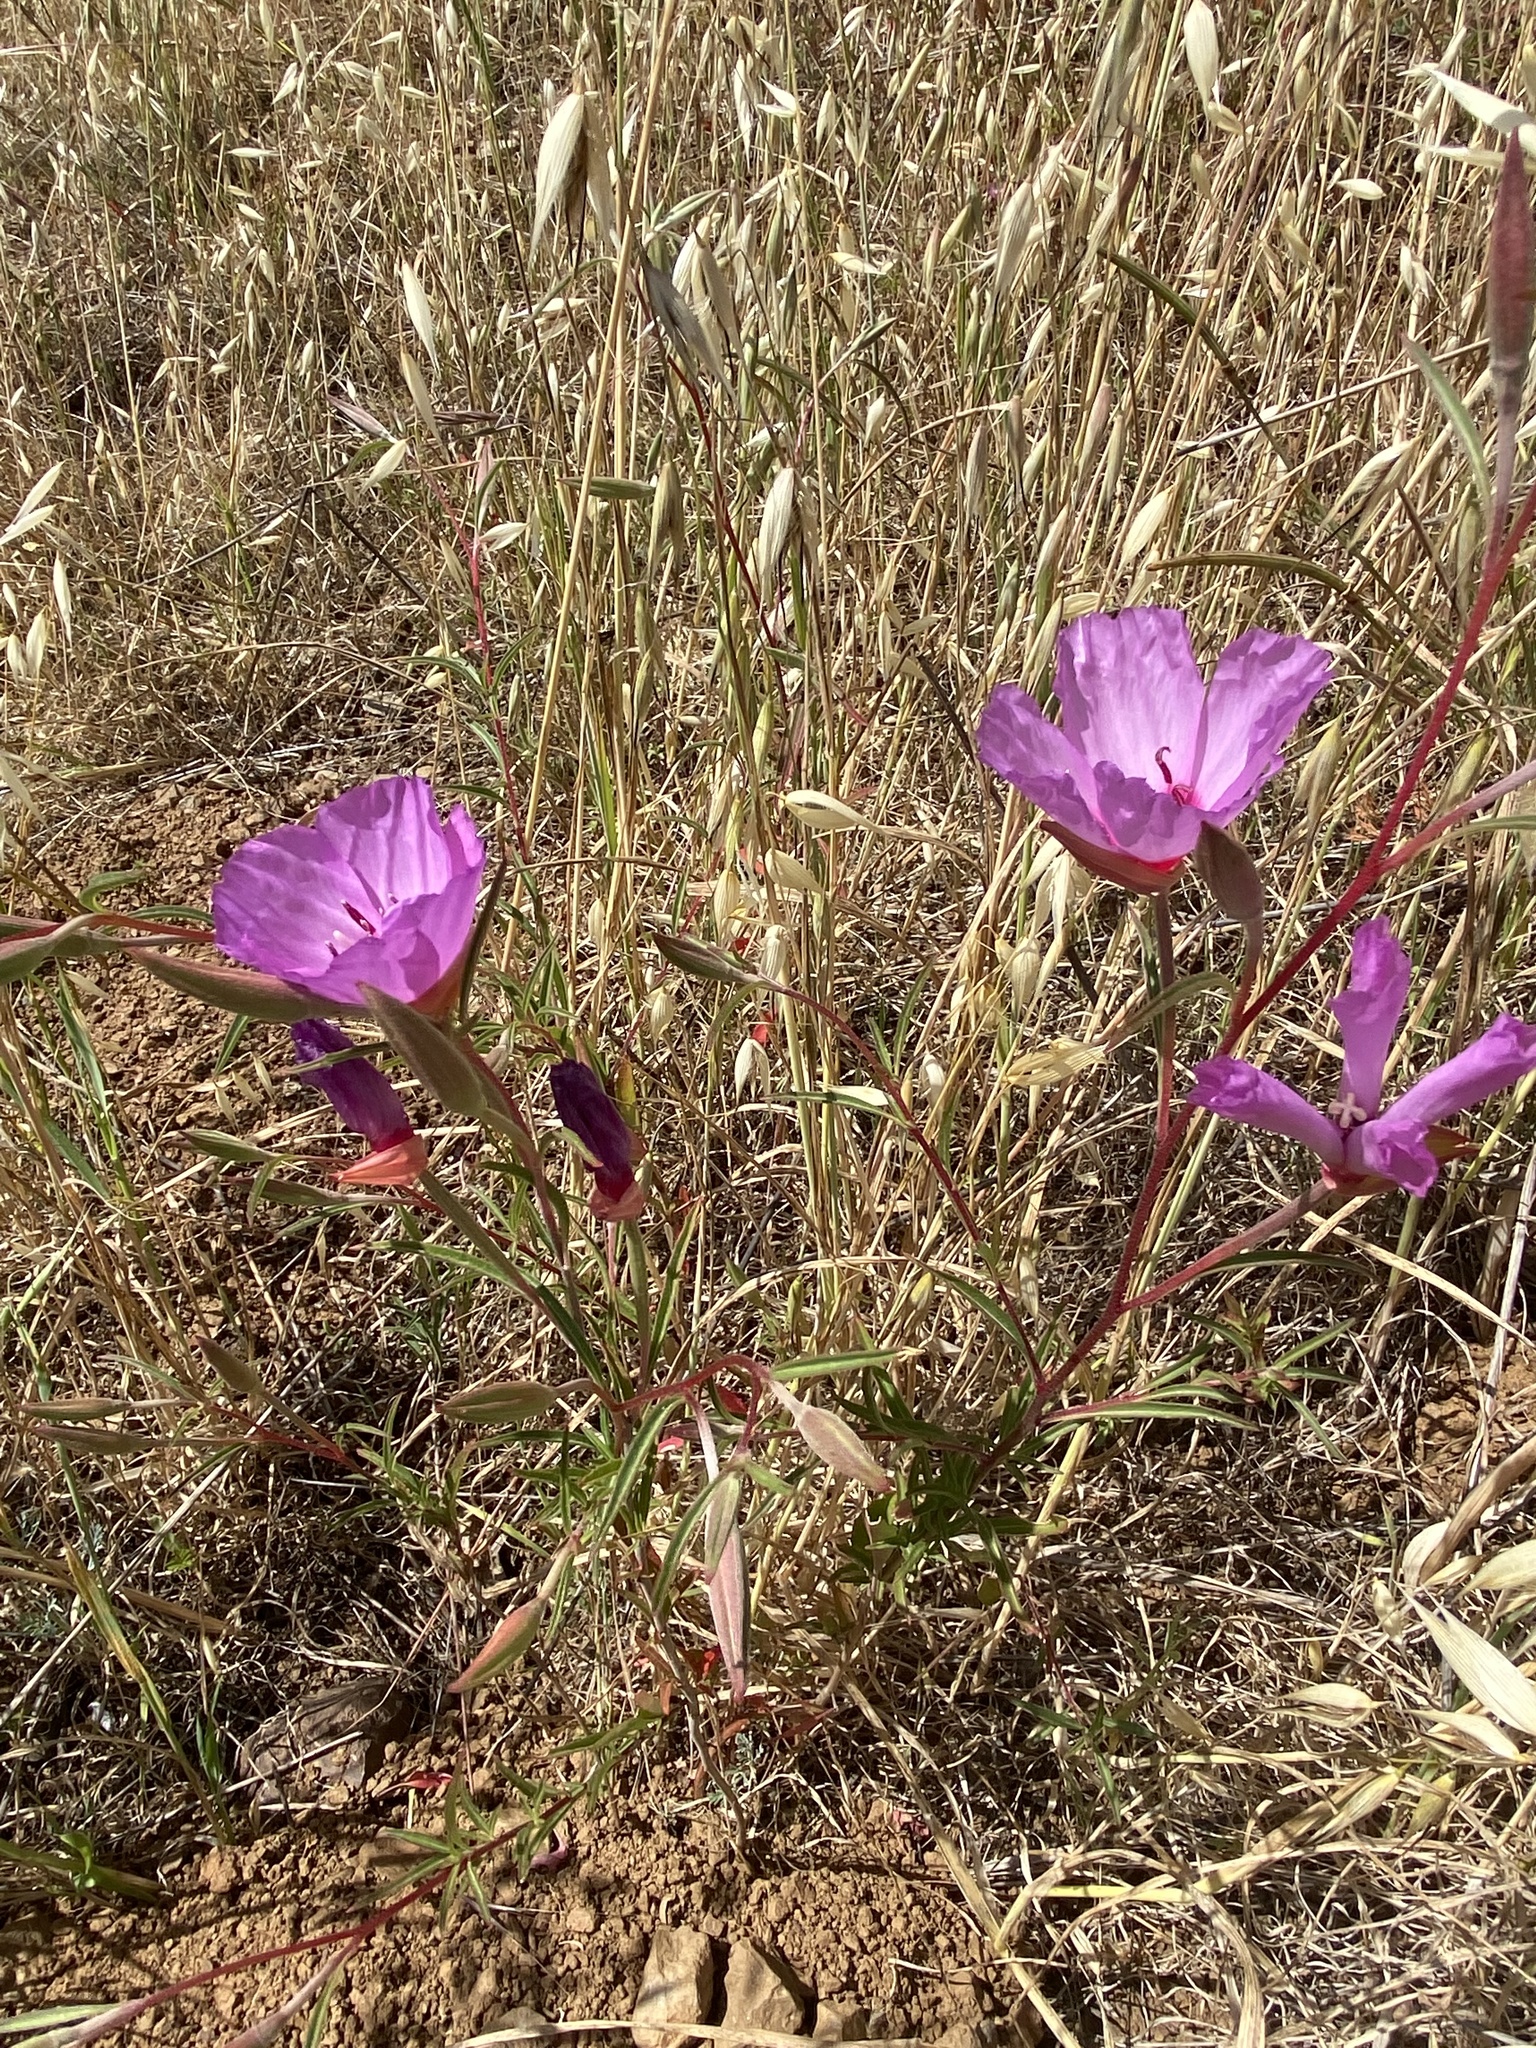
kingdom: Plantae
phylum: Tracheophyta
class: Magnoliopsida
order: Myrtales
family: Onagraceae
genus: Clarkia
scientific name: Clarkia rubicunda
